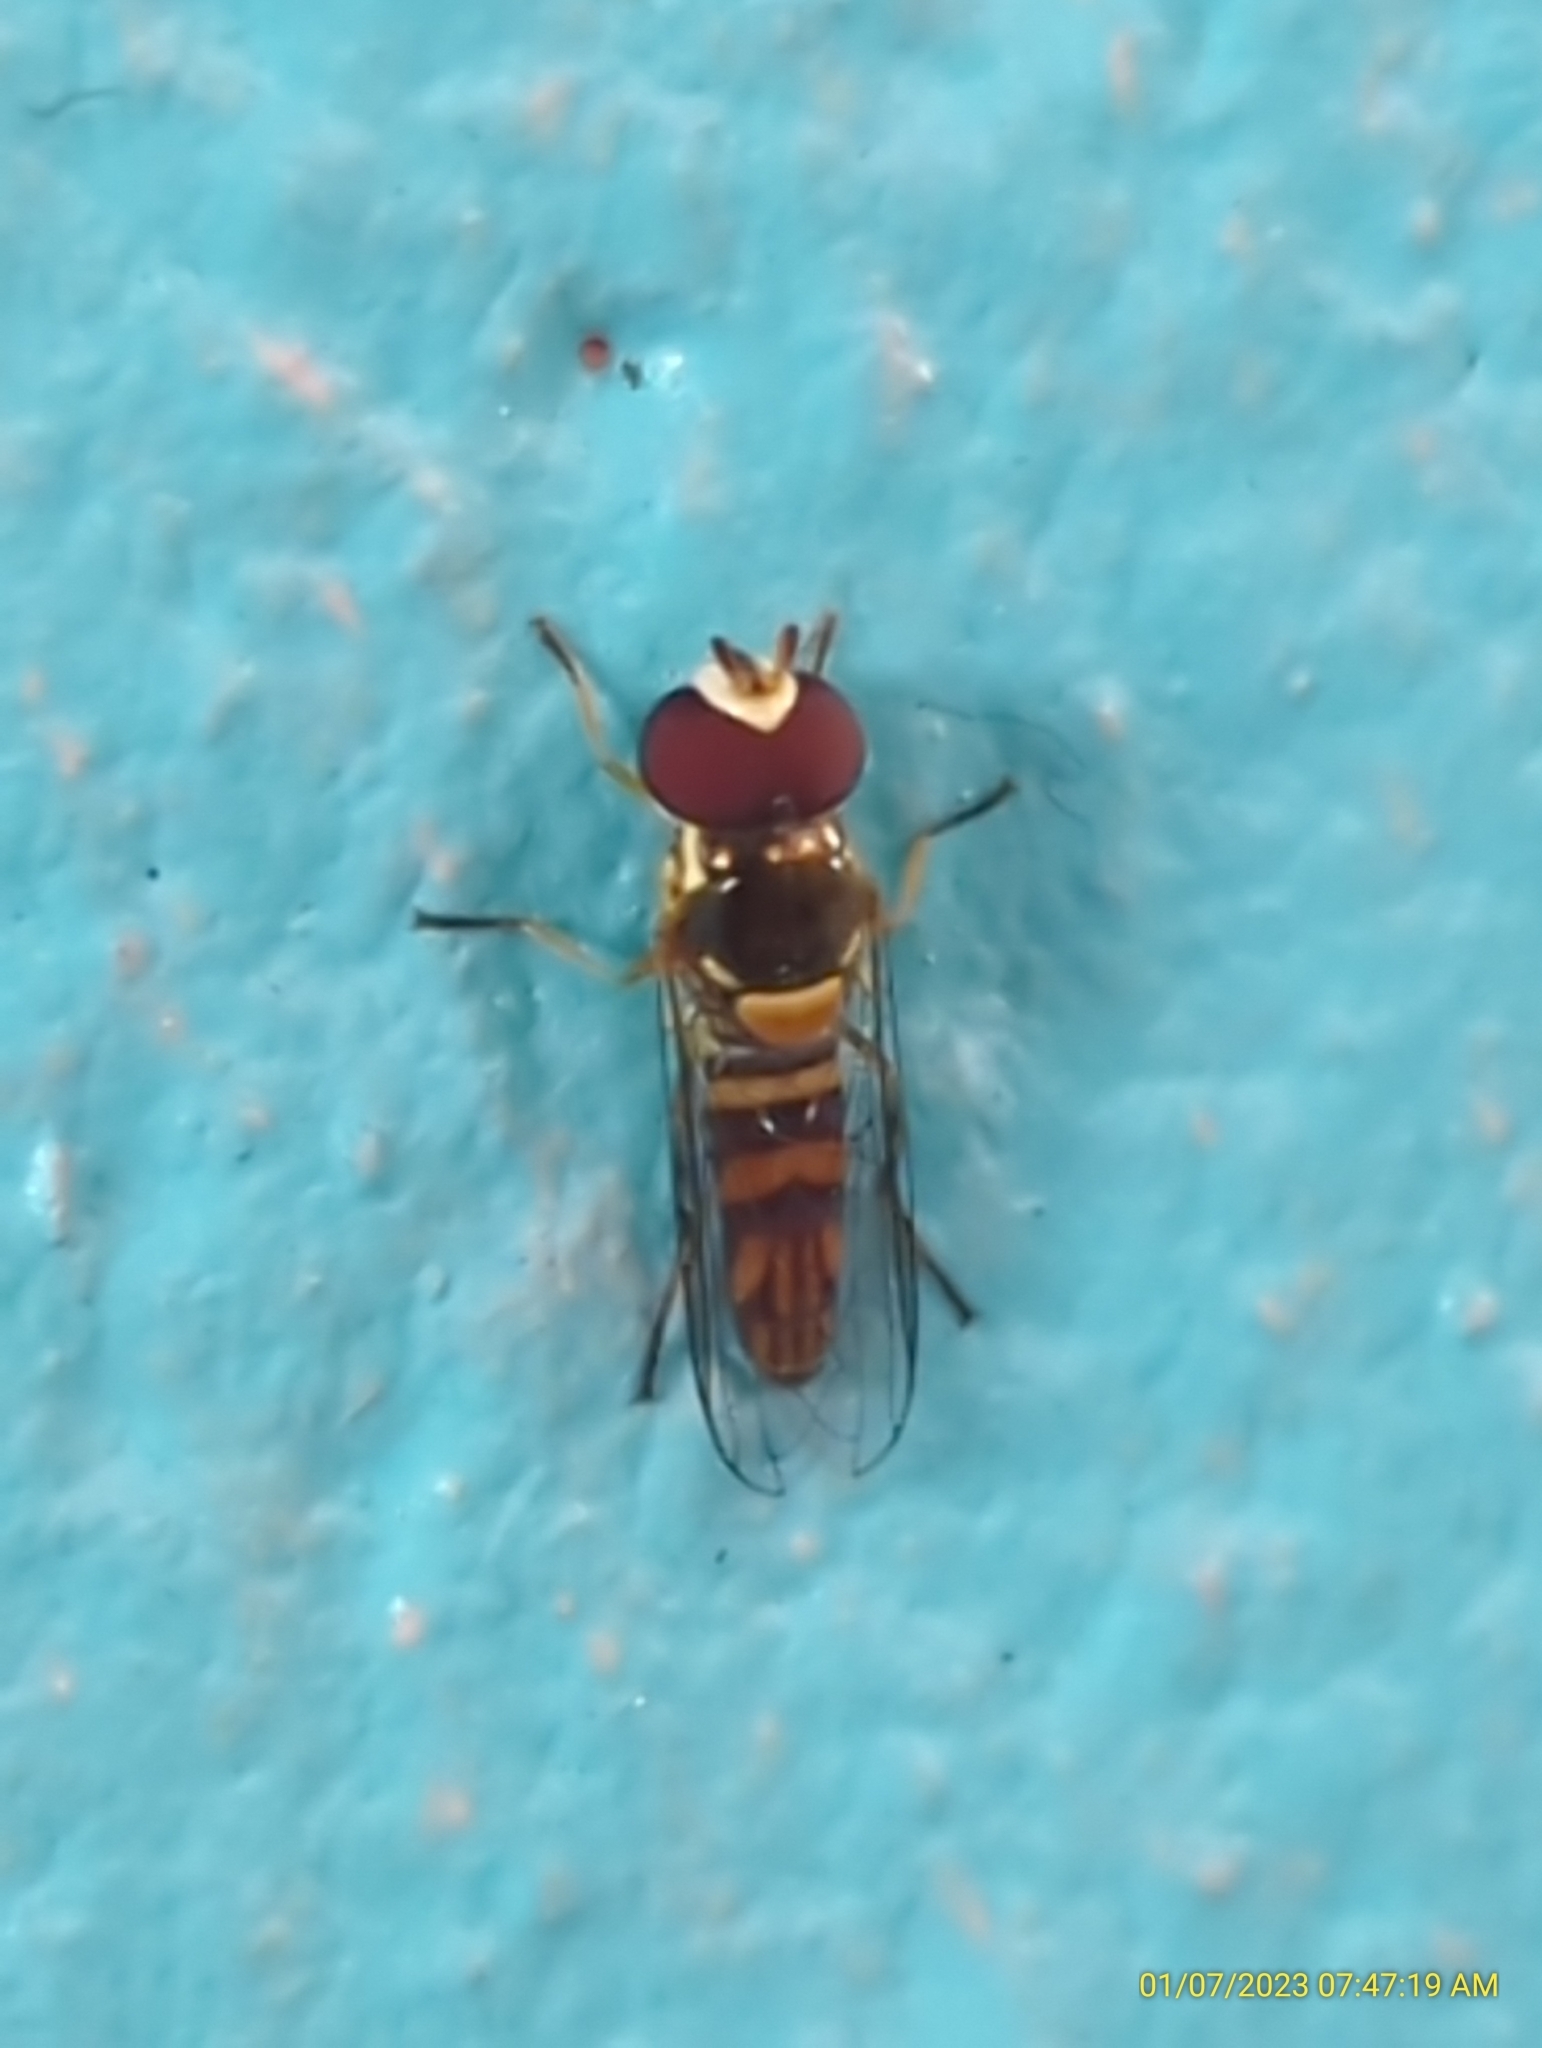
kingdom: Animalia
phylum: Arthropoda
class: Insecta
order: Diptera
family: Syrphidae
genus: Allograpta
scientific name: Allograpta obliqua
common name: Common oblique syrphid
